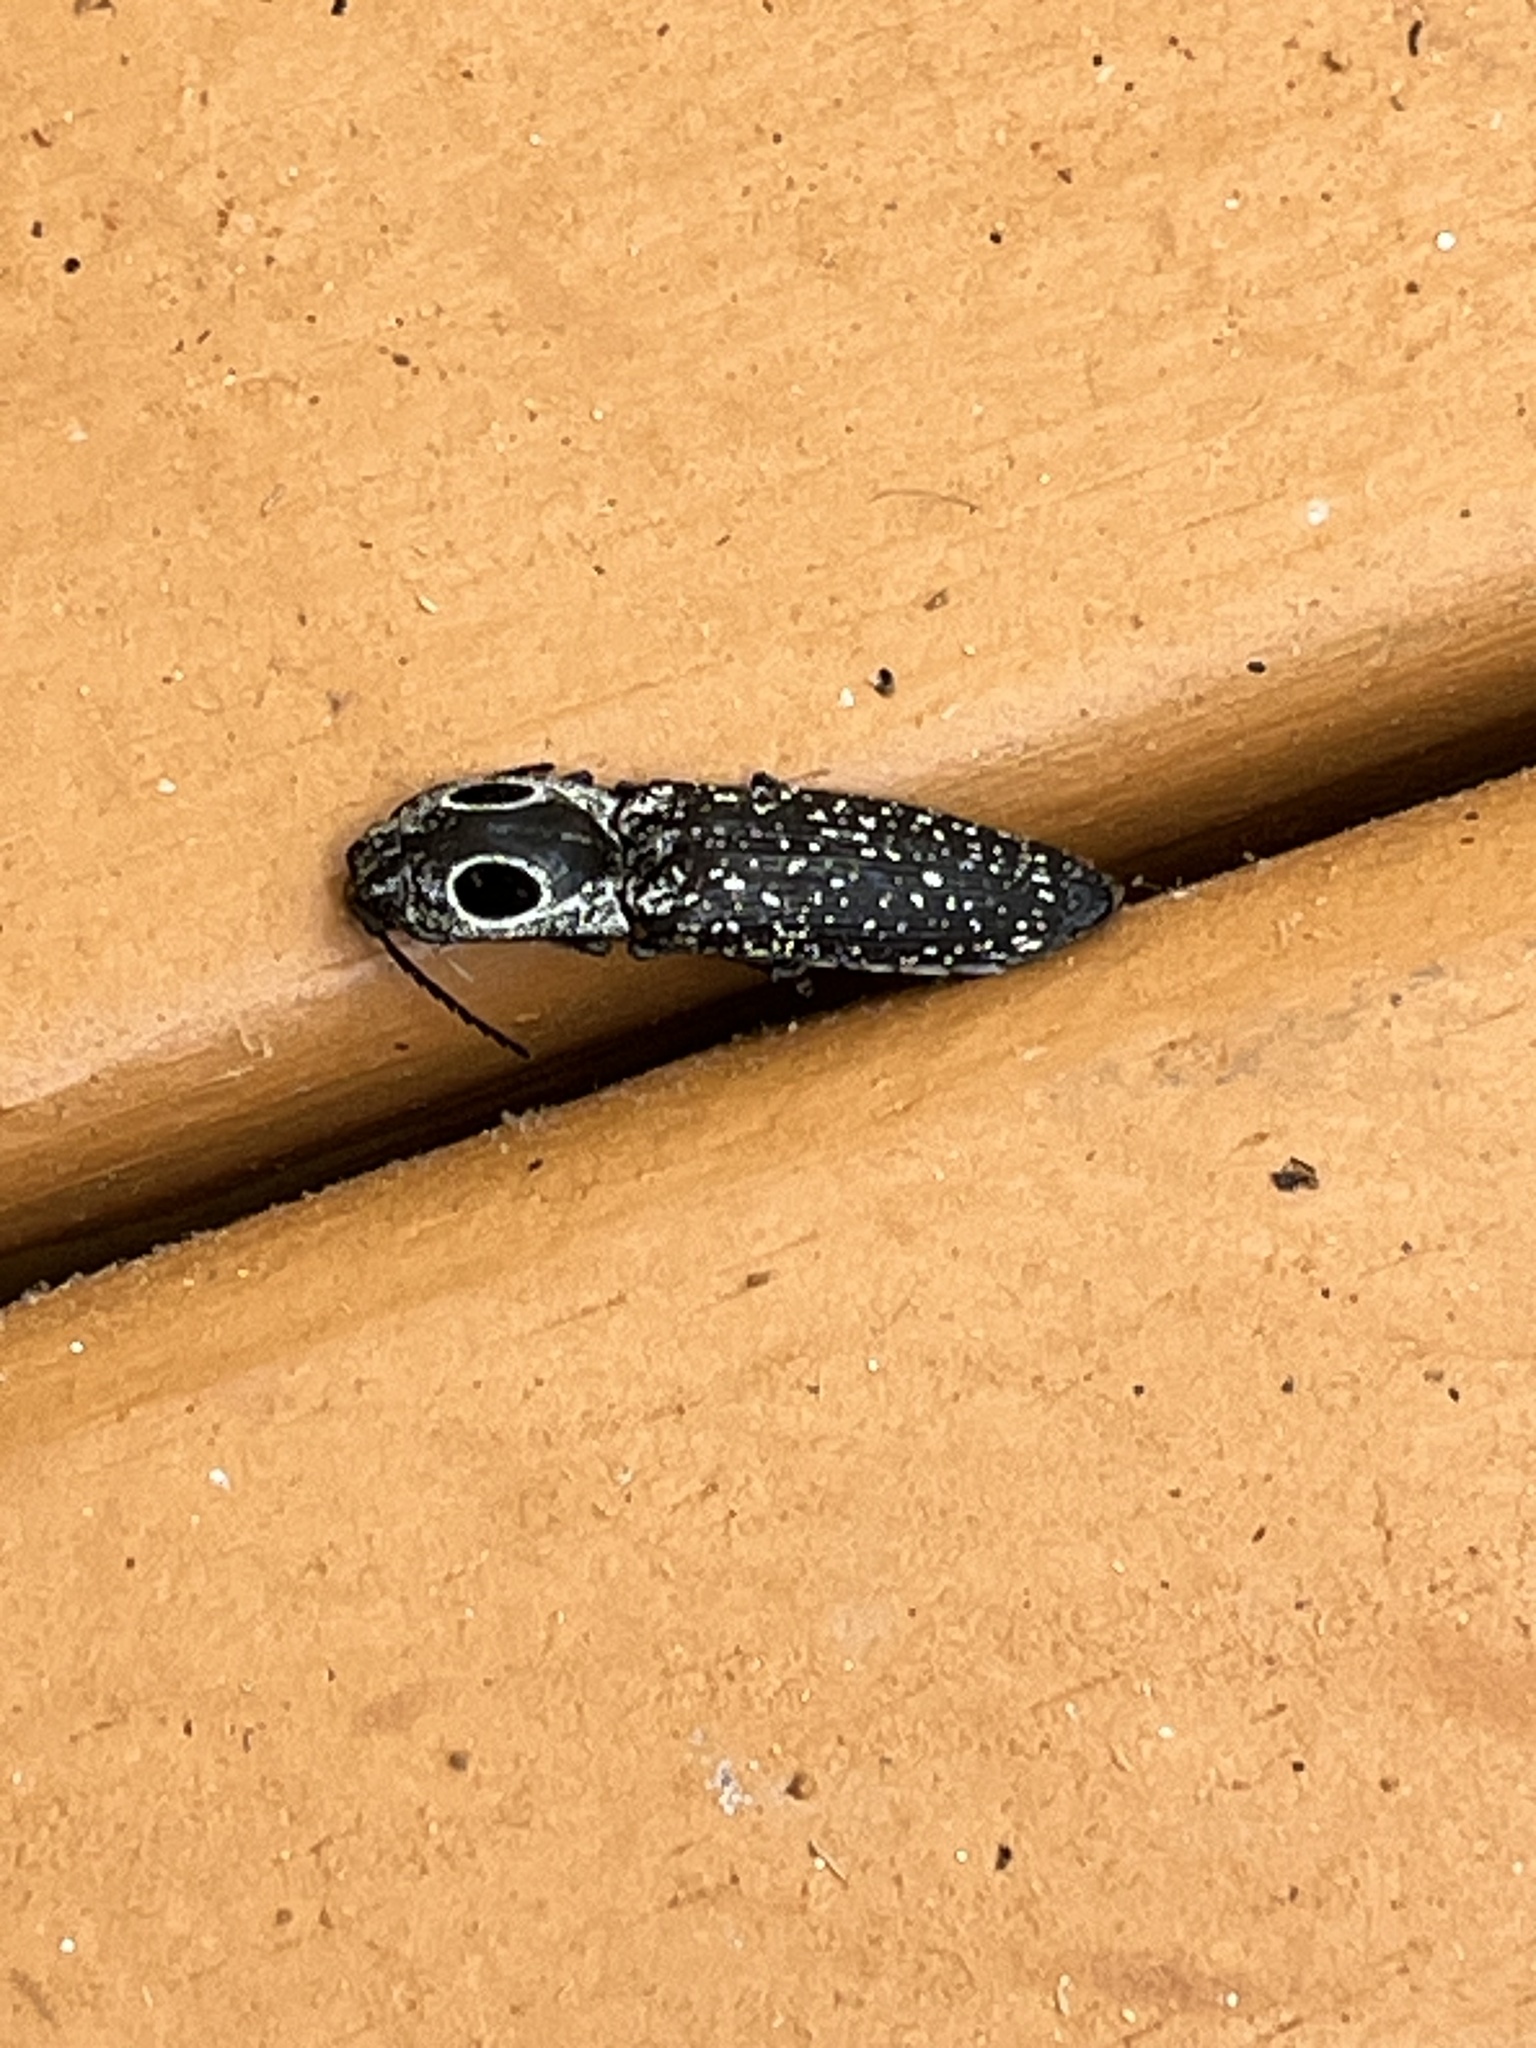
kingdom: Animalia
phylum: Arthropoda
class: Insecta
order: Coleoptera
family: Elateridae
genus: Alaus
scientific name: Alaus oculatus
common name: Eastern eyed click beetle
